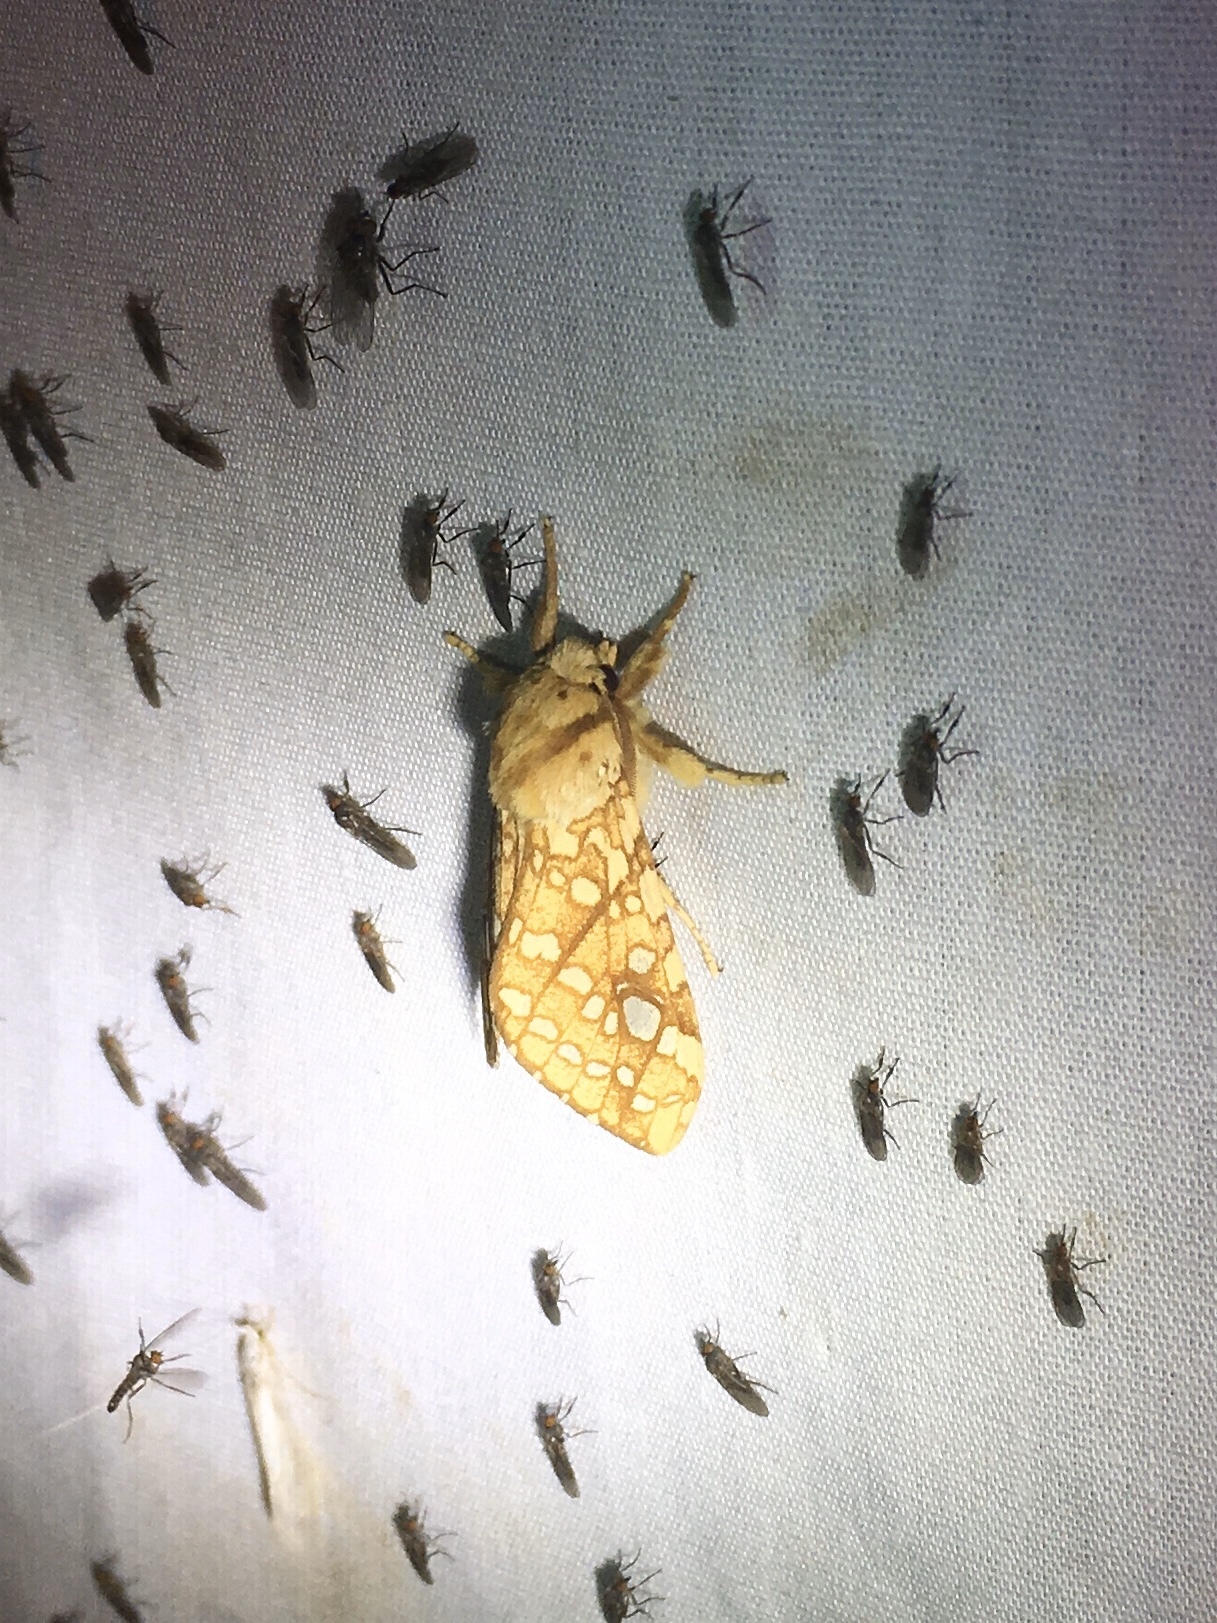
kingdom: Animalia
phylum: Arthropoda
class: Insecta
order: Lepidoptera
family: Erebidae
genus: Lophocampa
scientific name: Lophocampa caryae
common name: Hickory tussock moth
